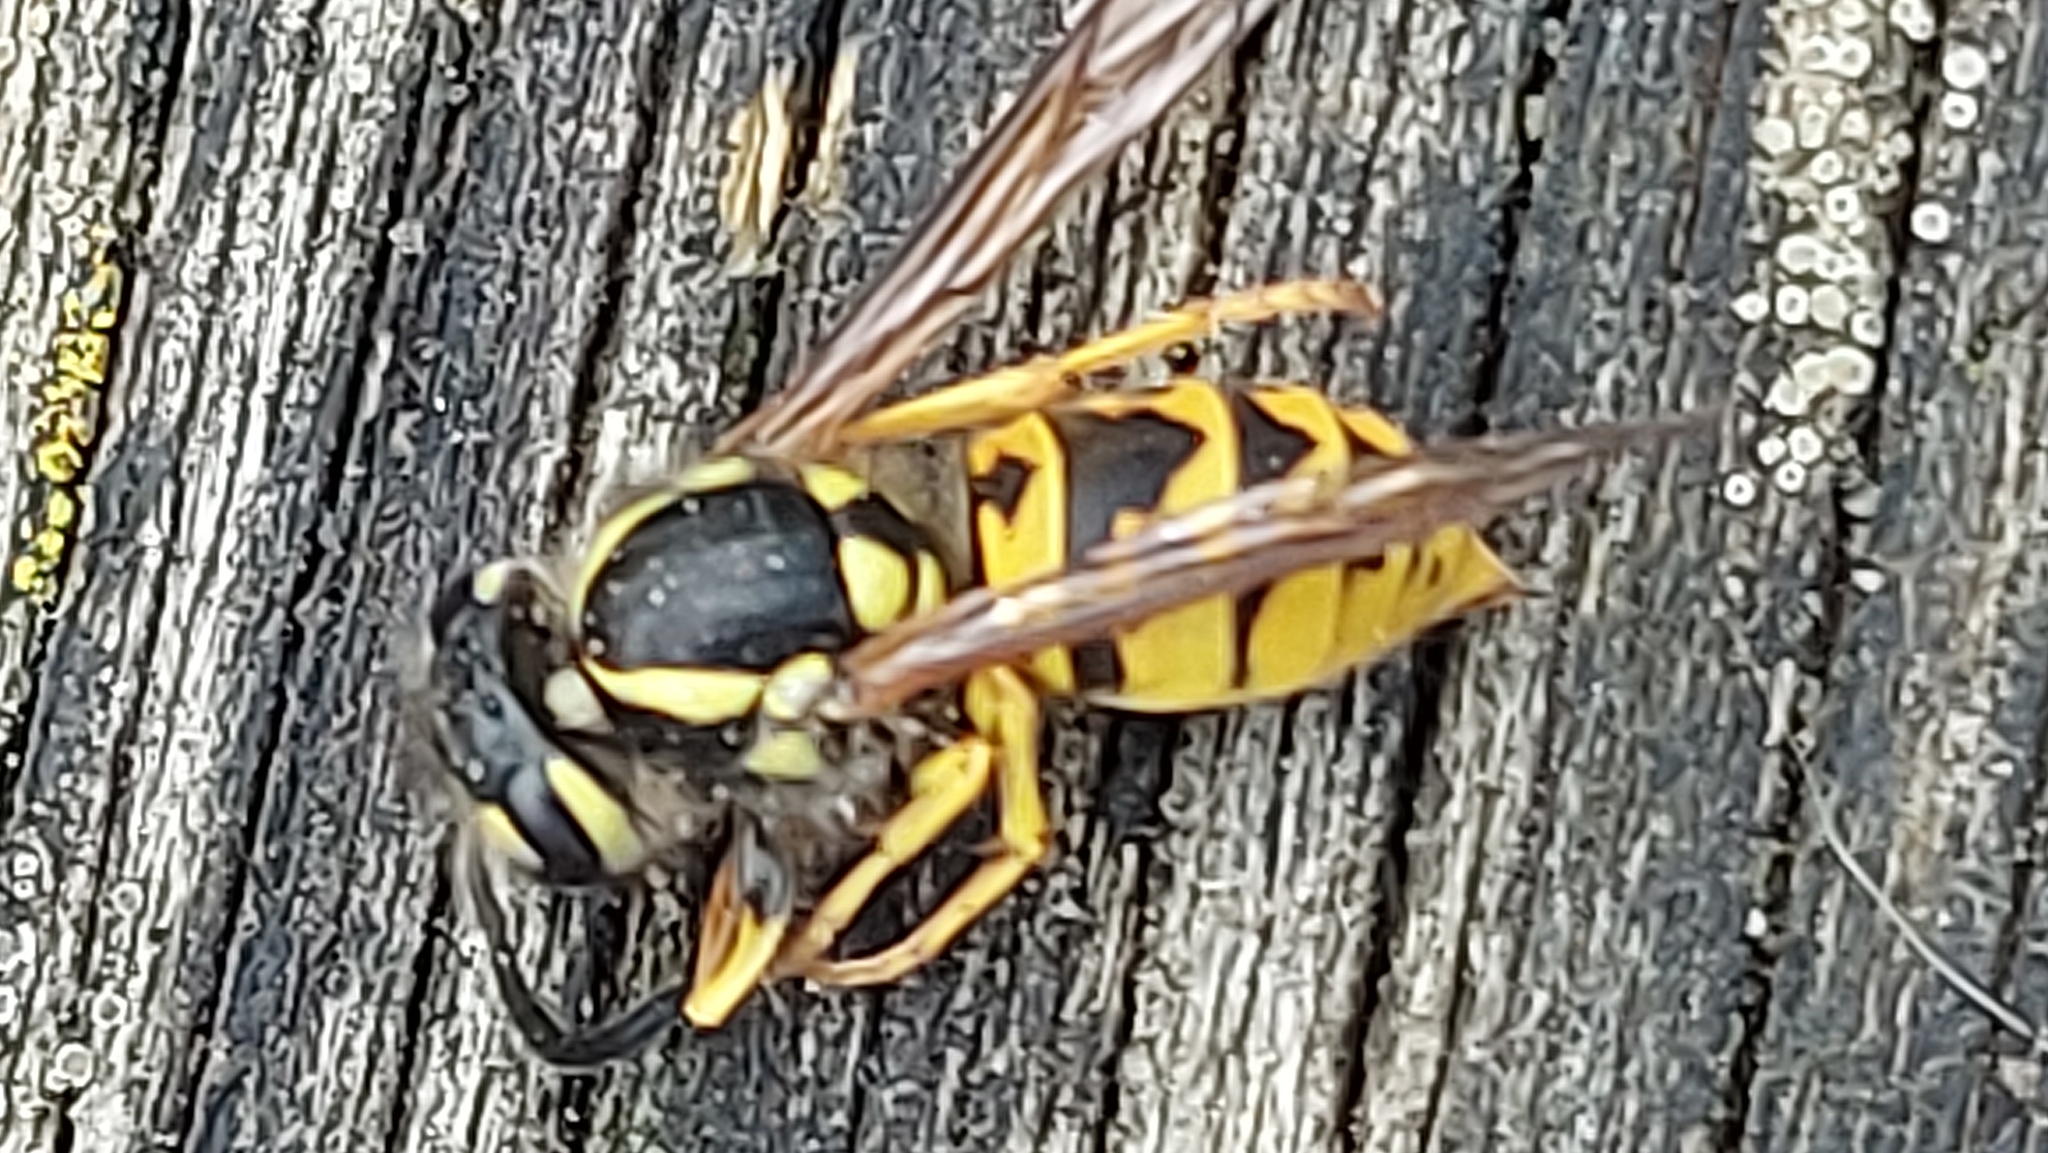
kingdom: Animalia
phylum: Arthropoda
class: Insecta
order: Hymenoptera
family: Vespidae
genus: Vespula
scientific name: Vespula germanica
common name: German wasp
